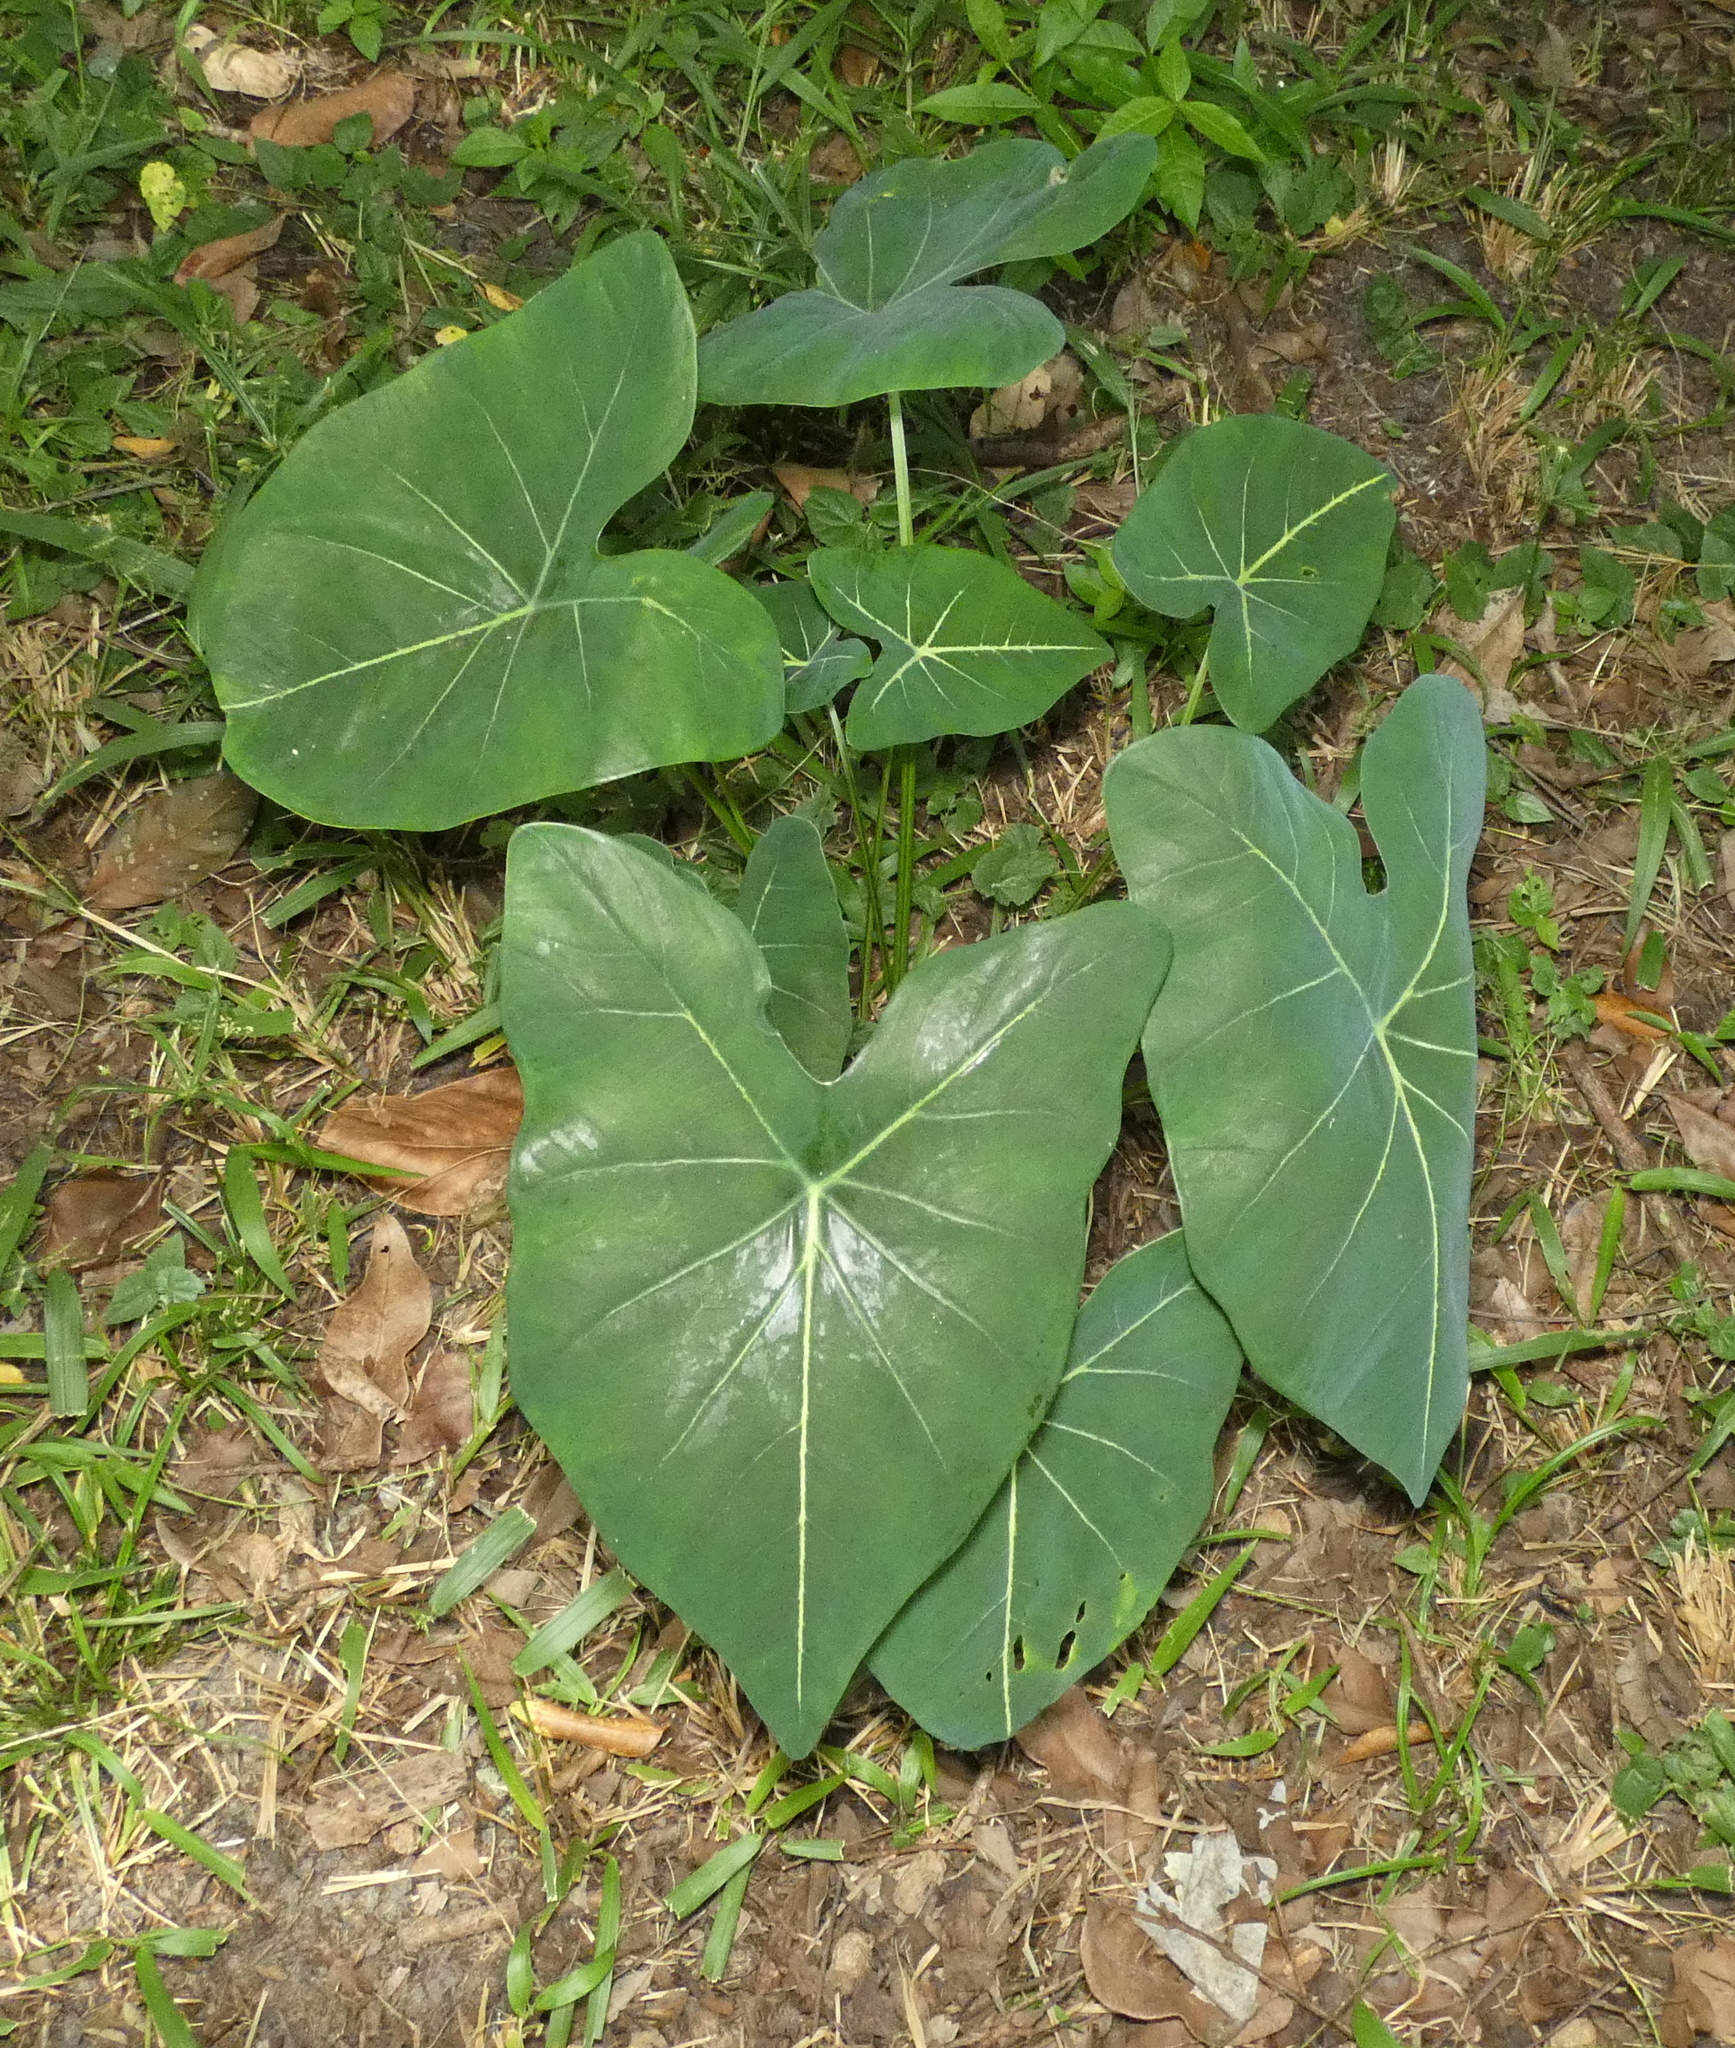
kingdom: Plantae
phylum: Tracheophyta
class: Liliopsida
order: Alismatales
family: Araceae
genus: Caladium
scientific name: Caladium bicolor
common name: Artist's pallet
